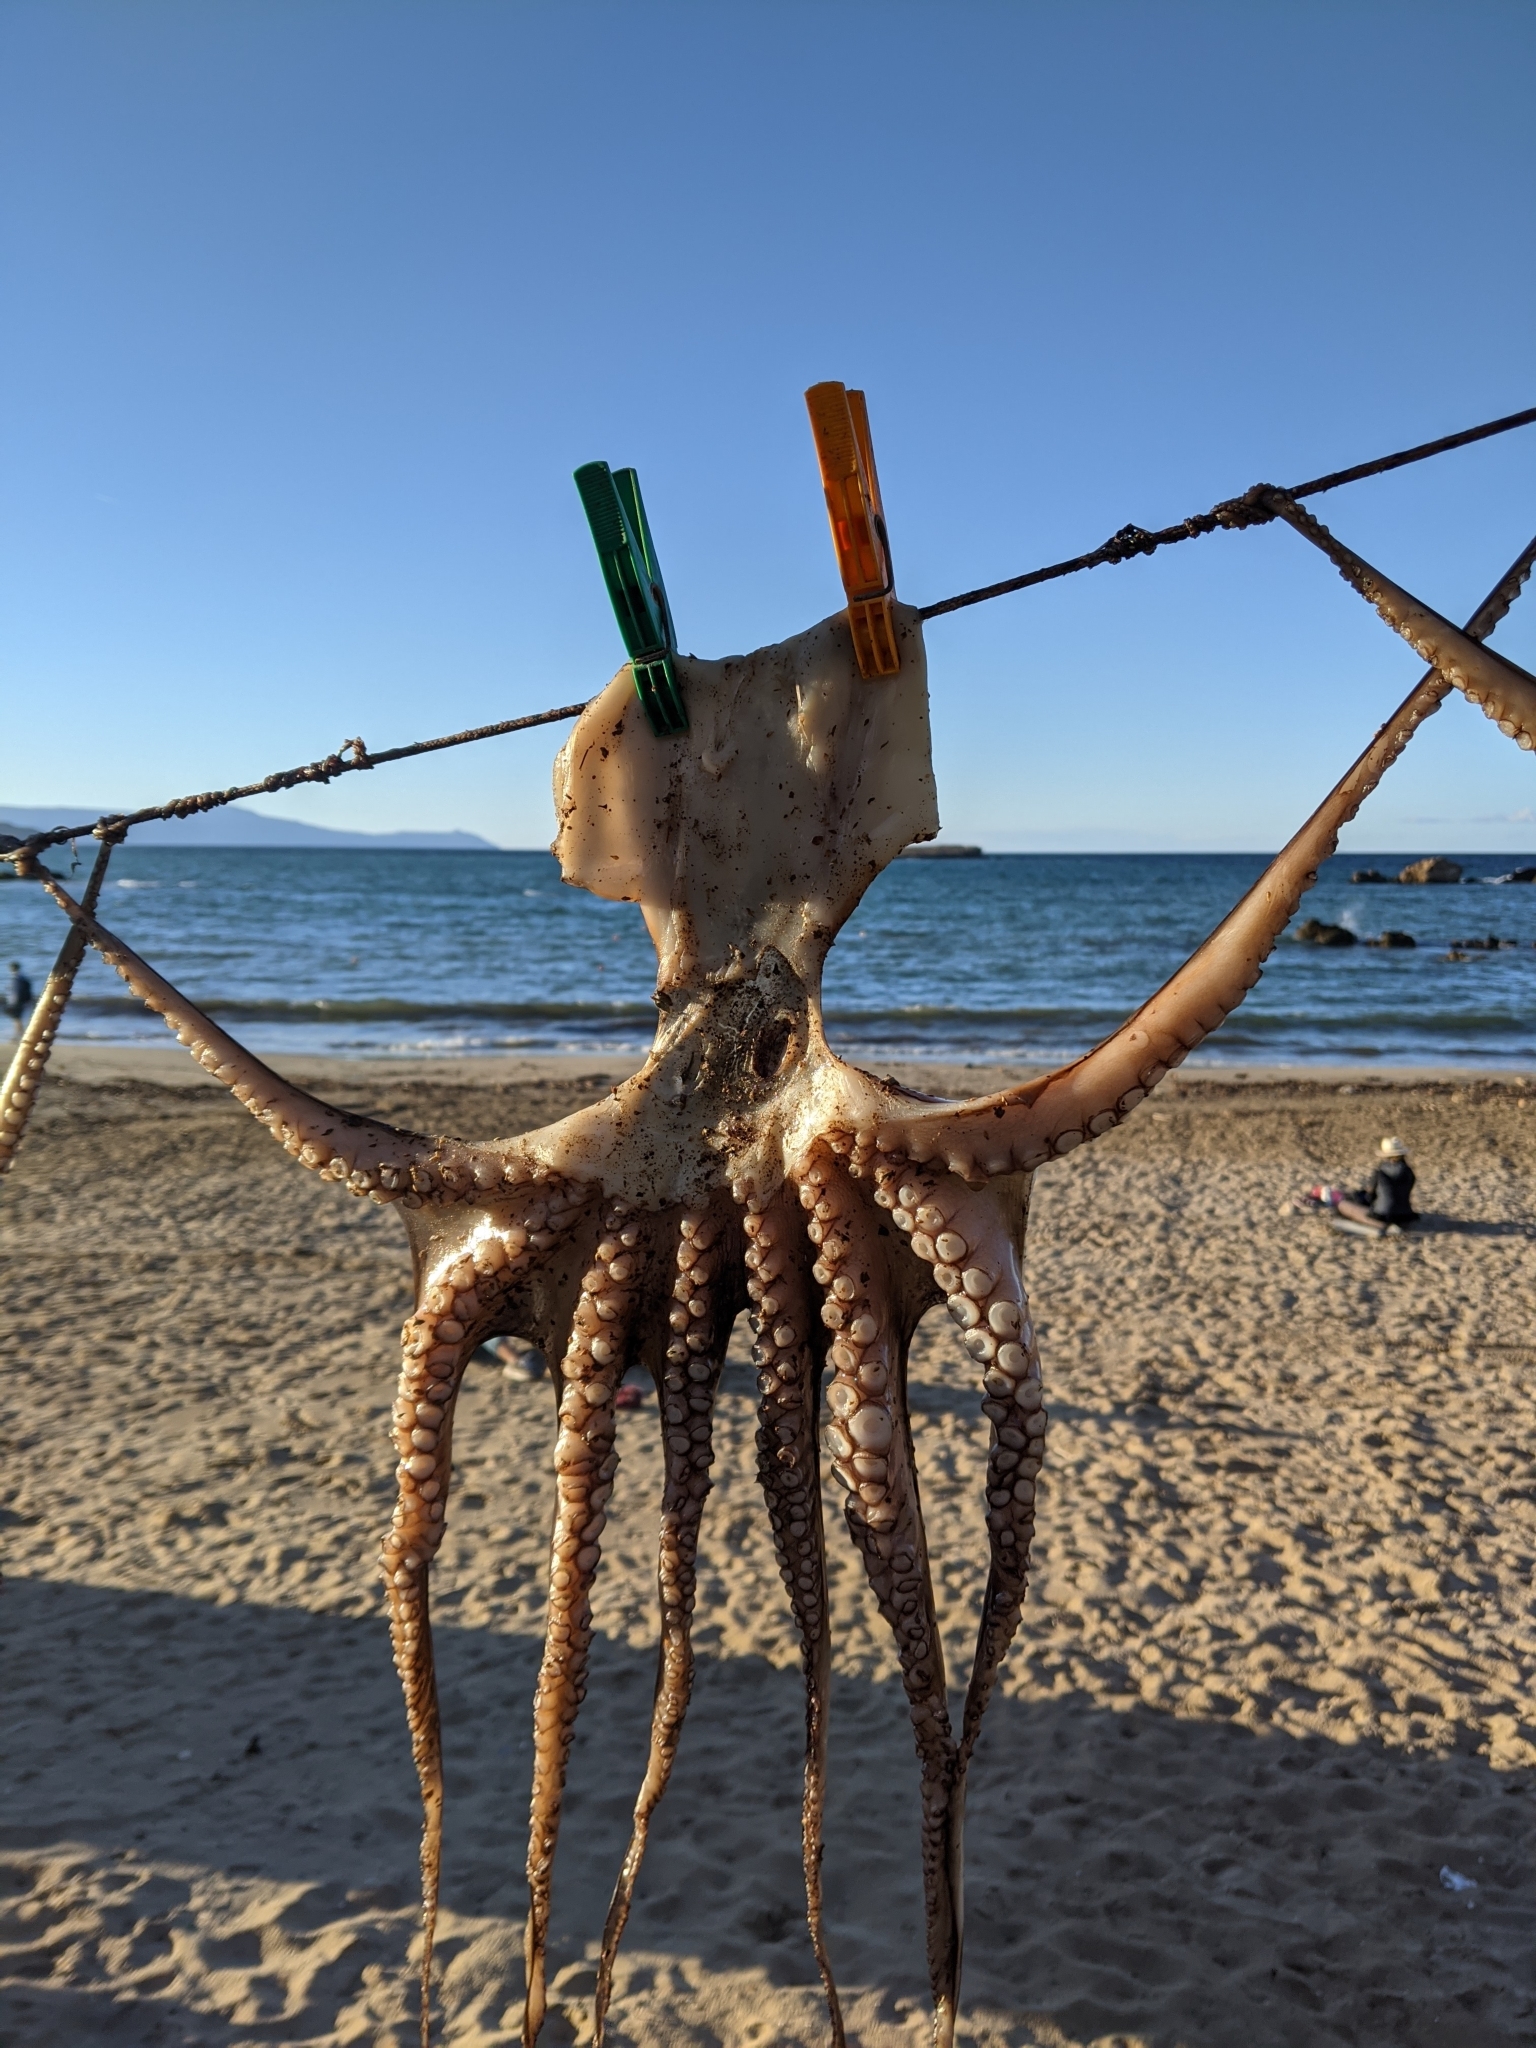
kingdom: Animalia
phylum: Mollusca
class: Cephalopoda
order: Octopoda
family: Octopodidae
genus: Octopus
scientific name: Octopus vulgaris
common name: Common octopus
